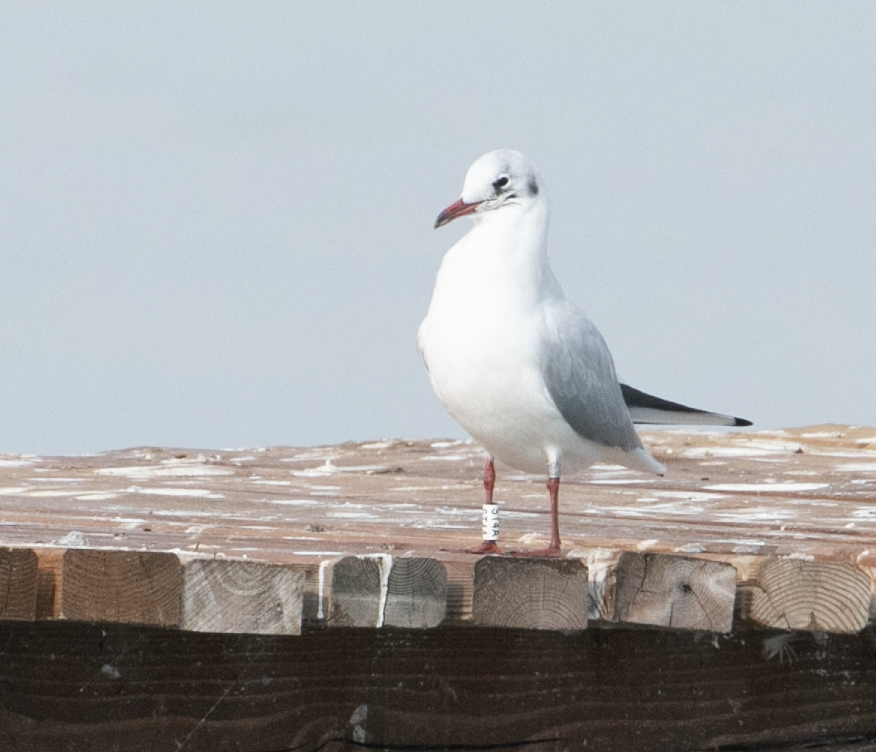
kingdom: Animalia
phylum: Chordata
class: Aves
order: Charadriiformes
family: Laridae
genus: Chroicocephalus
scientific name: Chroicocephalus ridibundus
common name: Black-headed gull
